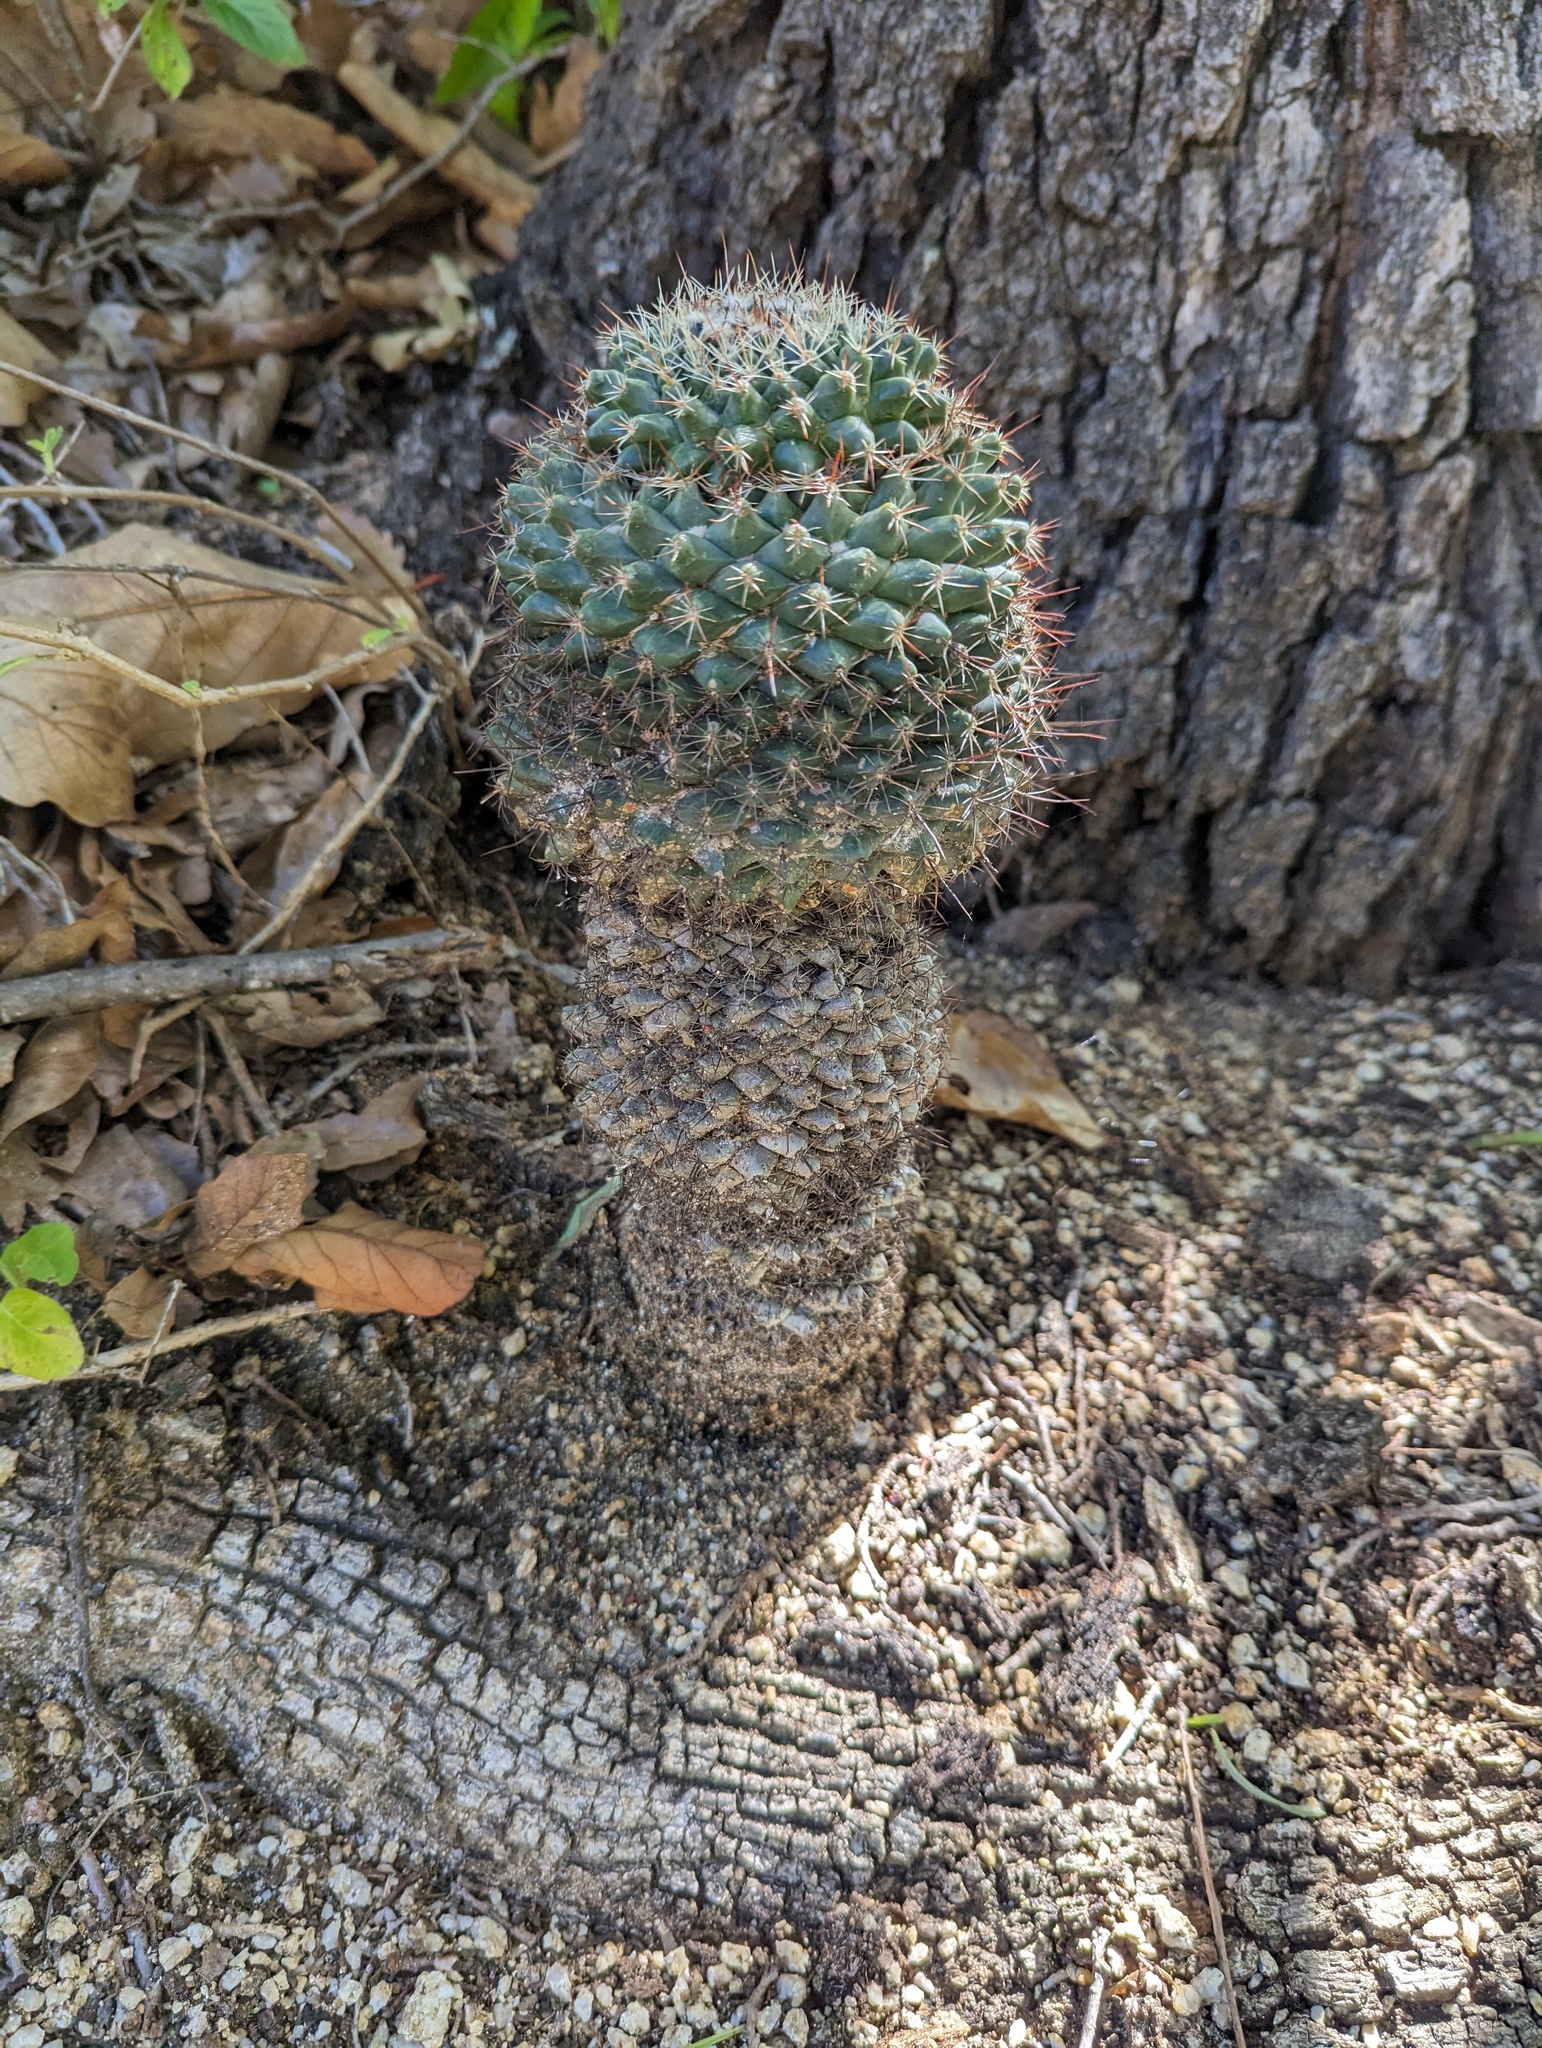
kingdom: Plantae
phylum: Tracheophyta
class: Magnoliopsida
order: Caryophyllales
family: Cactaceae
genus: Mammillaria
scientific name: Mammillaria petrophila
